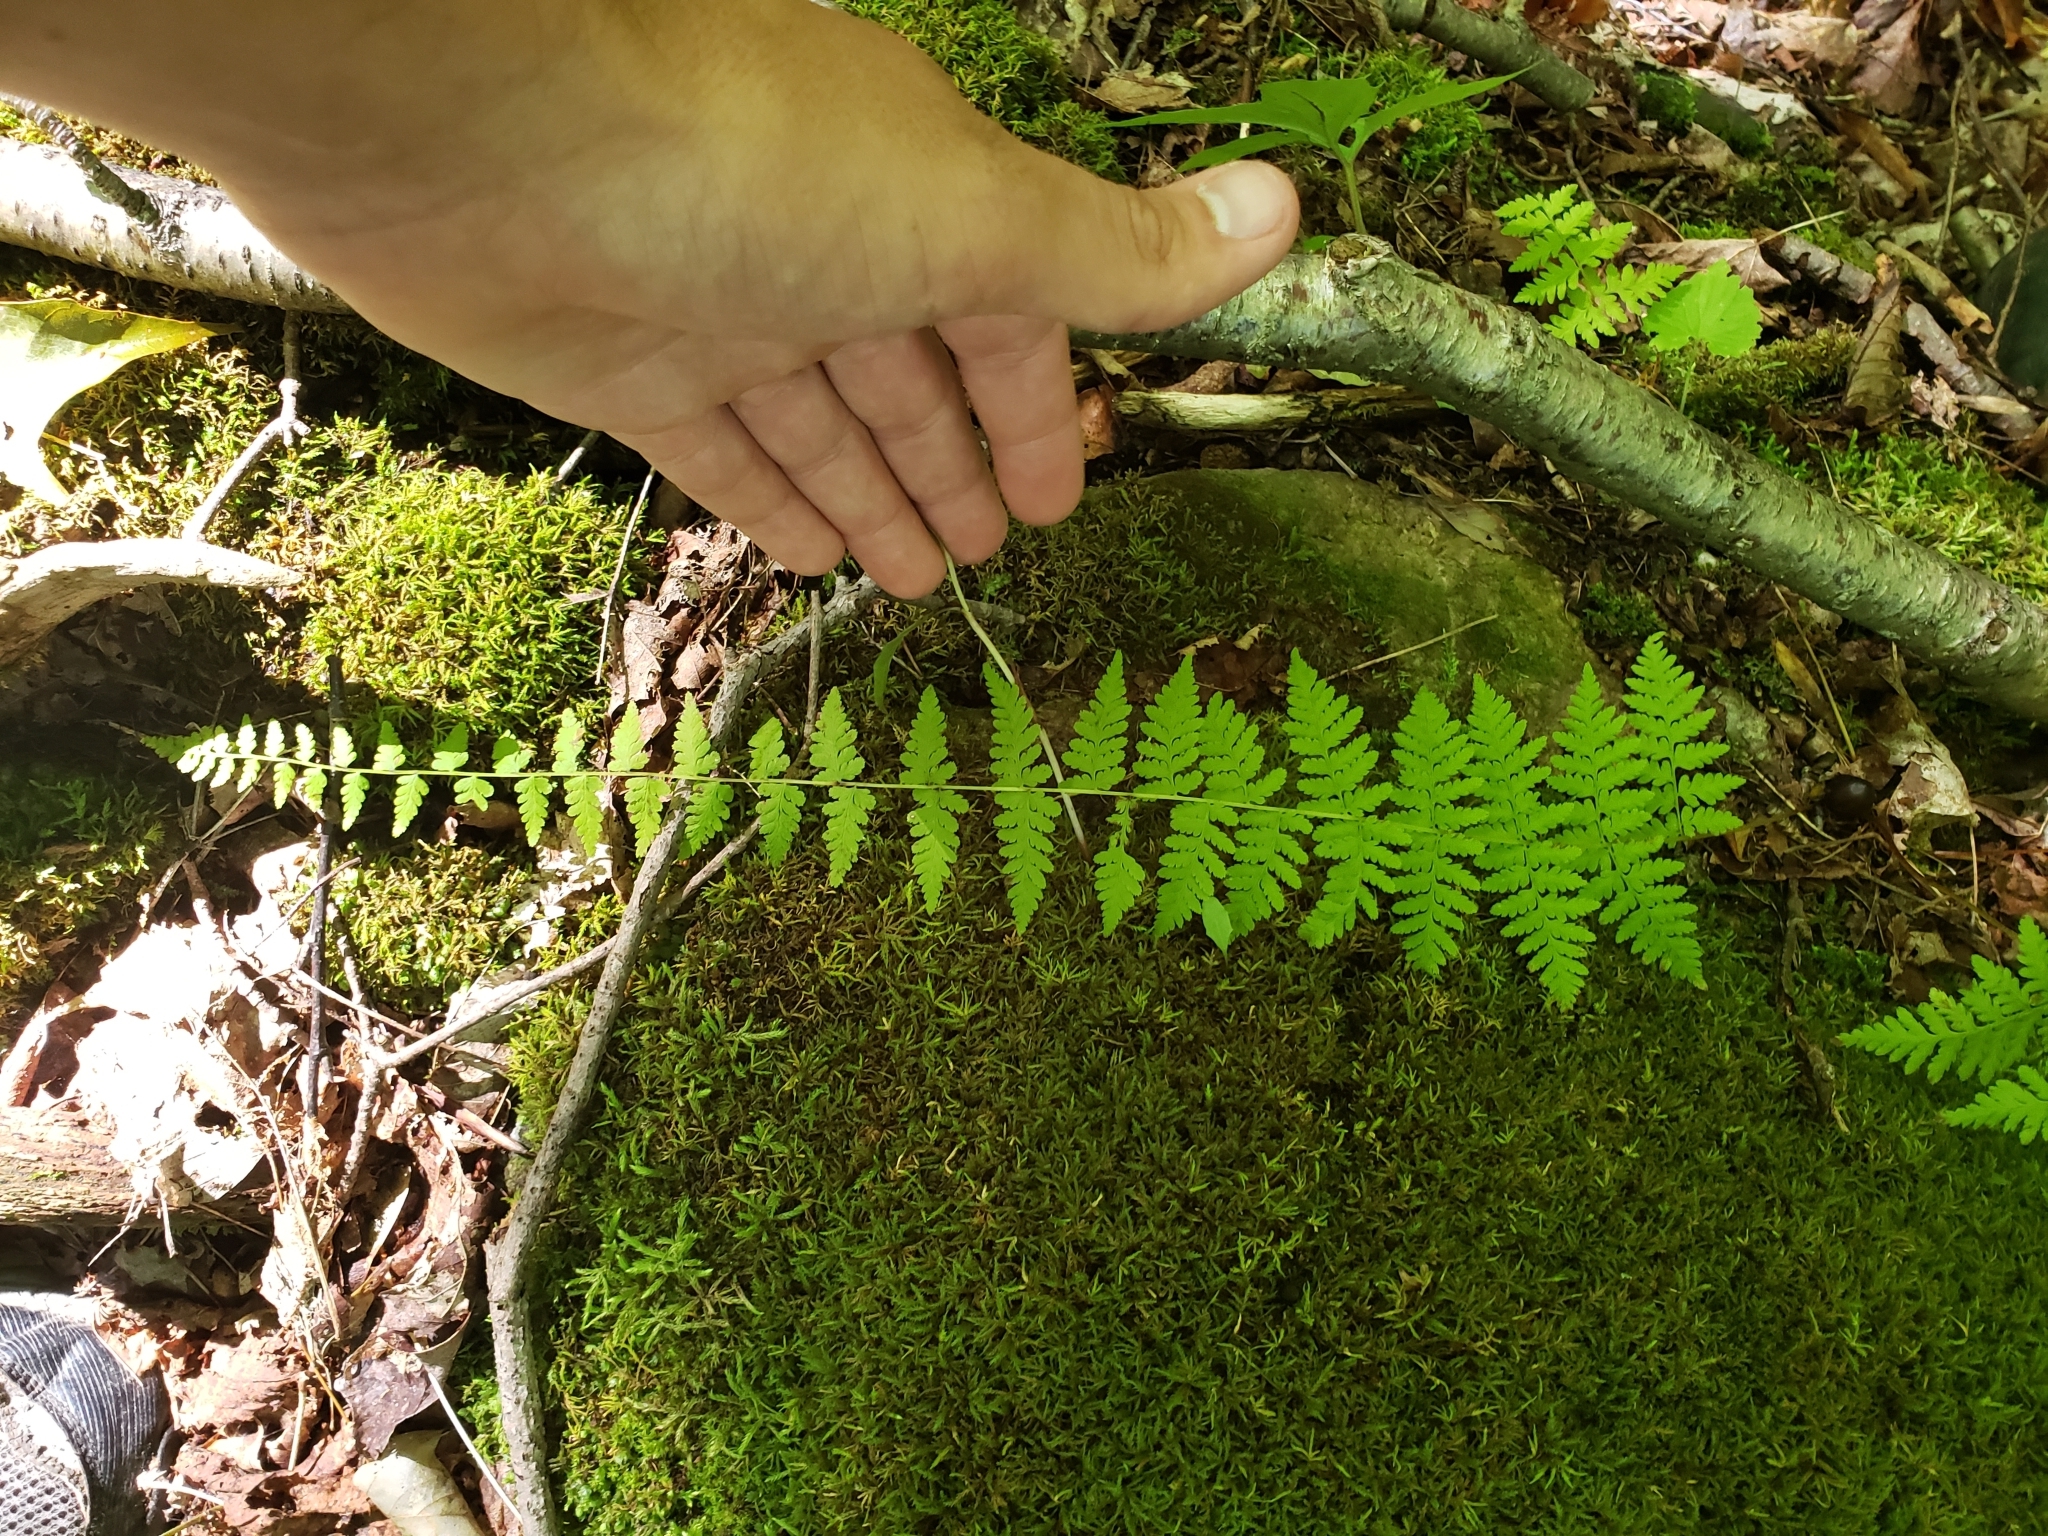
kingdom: Plantae
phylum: Tracheophyta
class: Polypodiopsida
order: Polypodiales
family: Cystopteridaceae
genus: Cystopteris
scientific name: Cystopteris bulbifera
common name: Bulblet bladder fern
